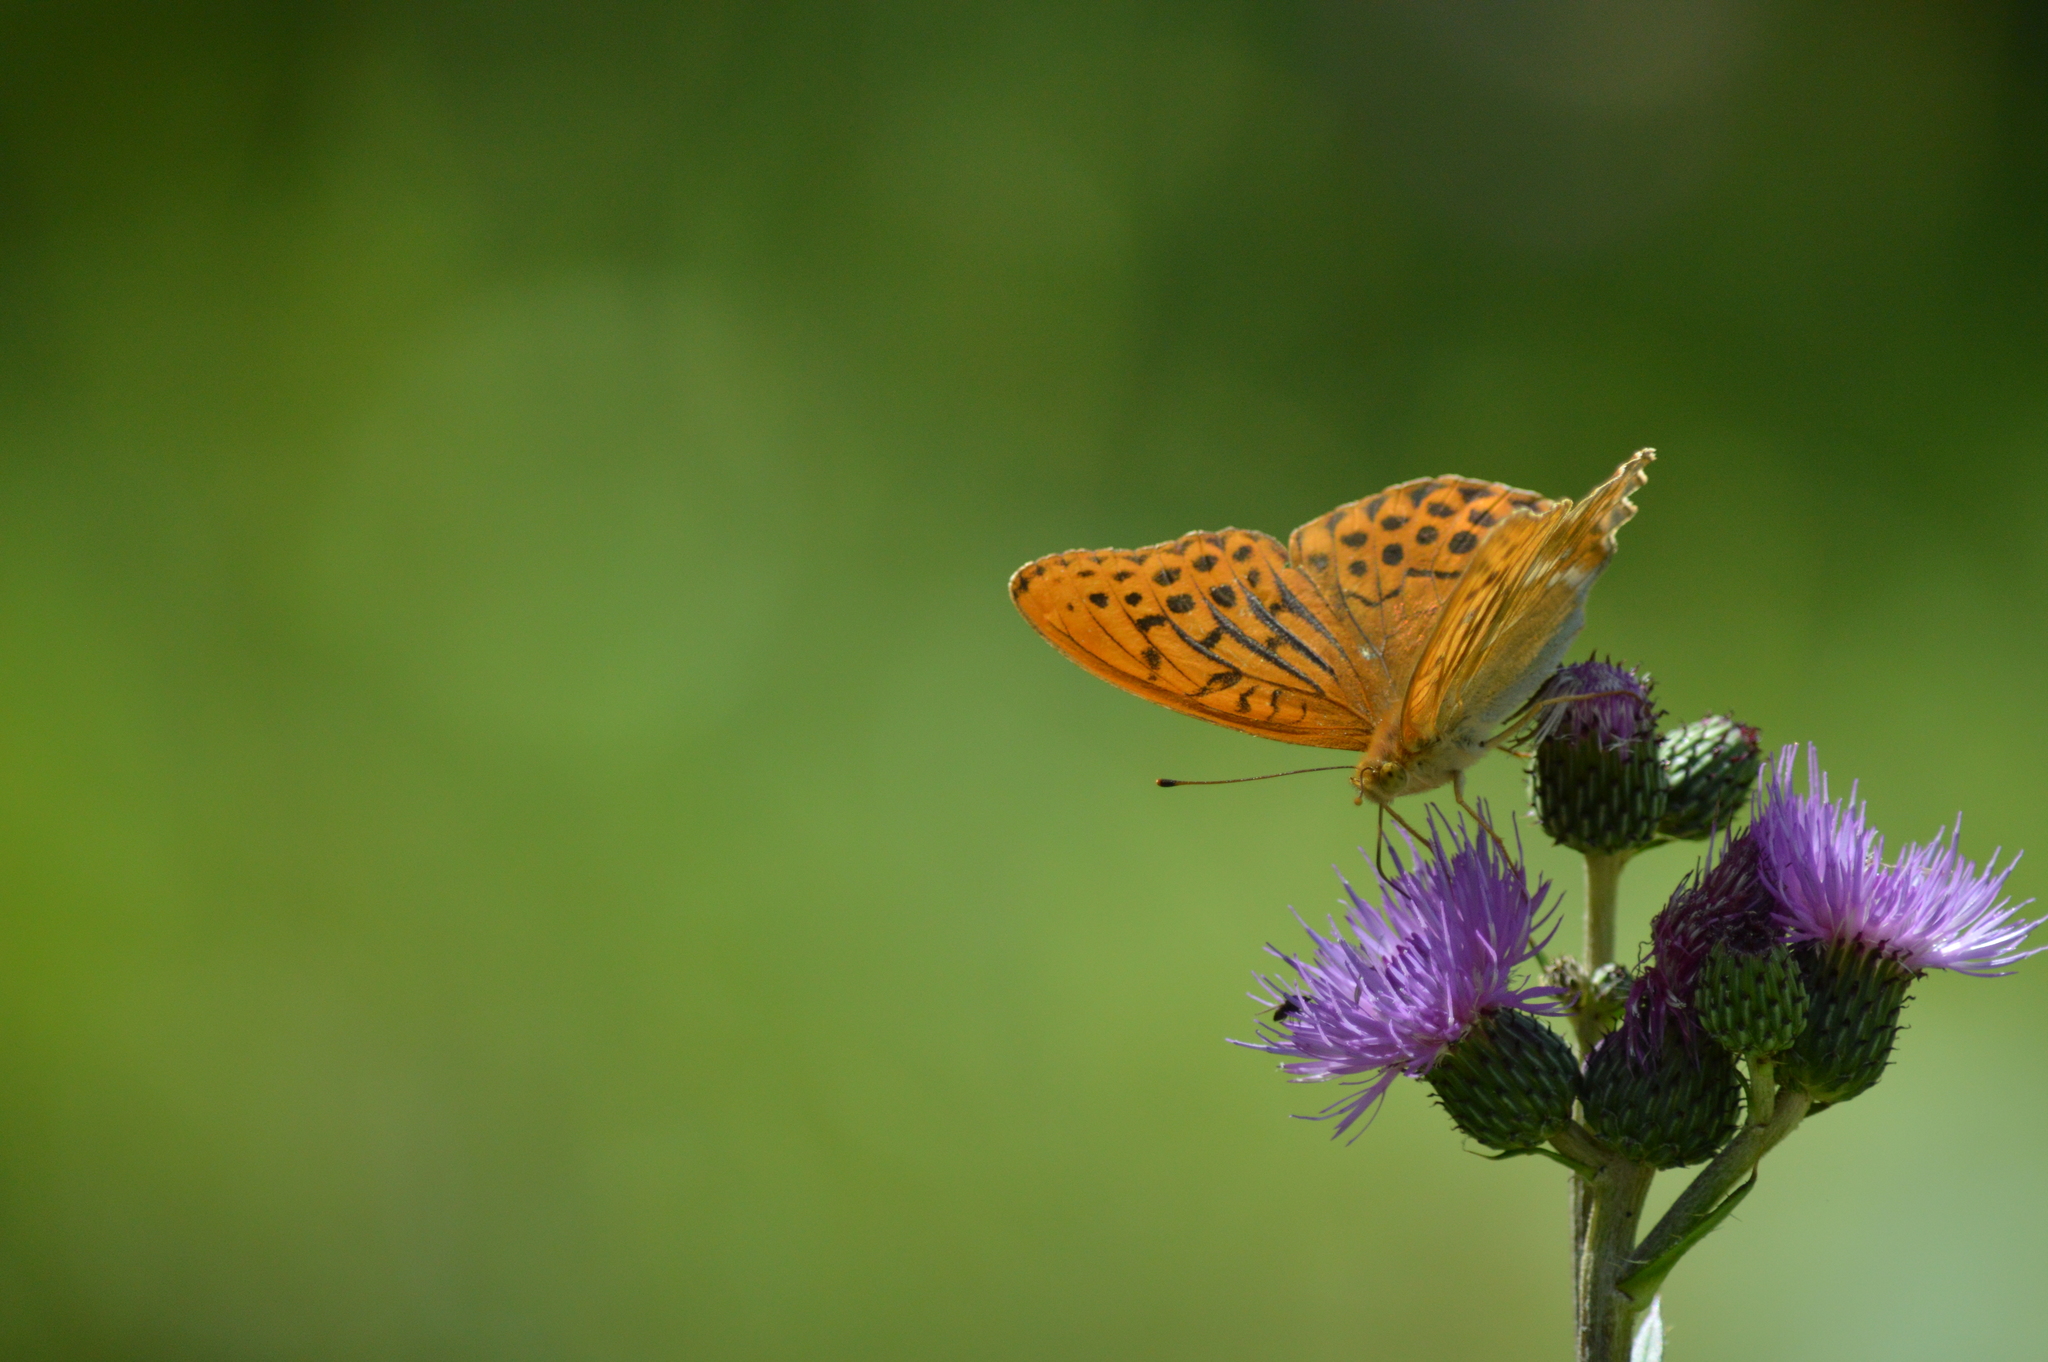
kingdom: Animalia
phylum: Arthropoda
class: Insecta
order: Lepidoptera
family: Nymphalidae
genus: Argynnis
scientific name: Argynnis paphia
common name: Silver-washed fritillary
